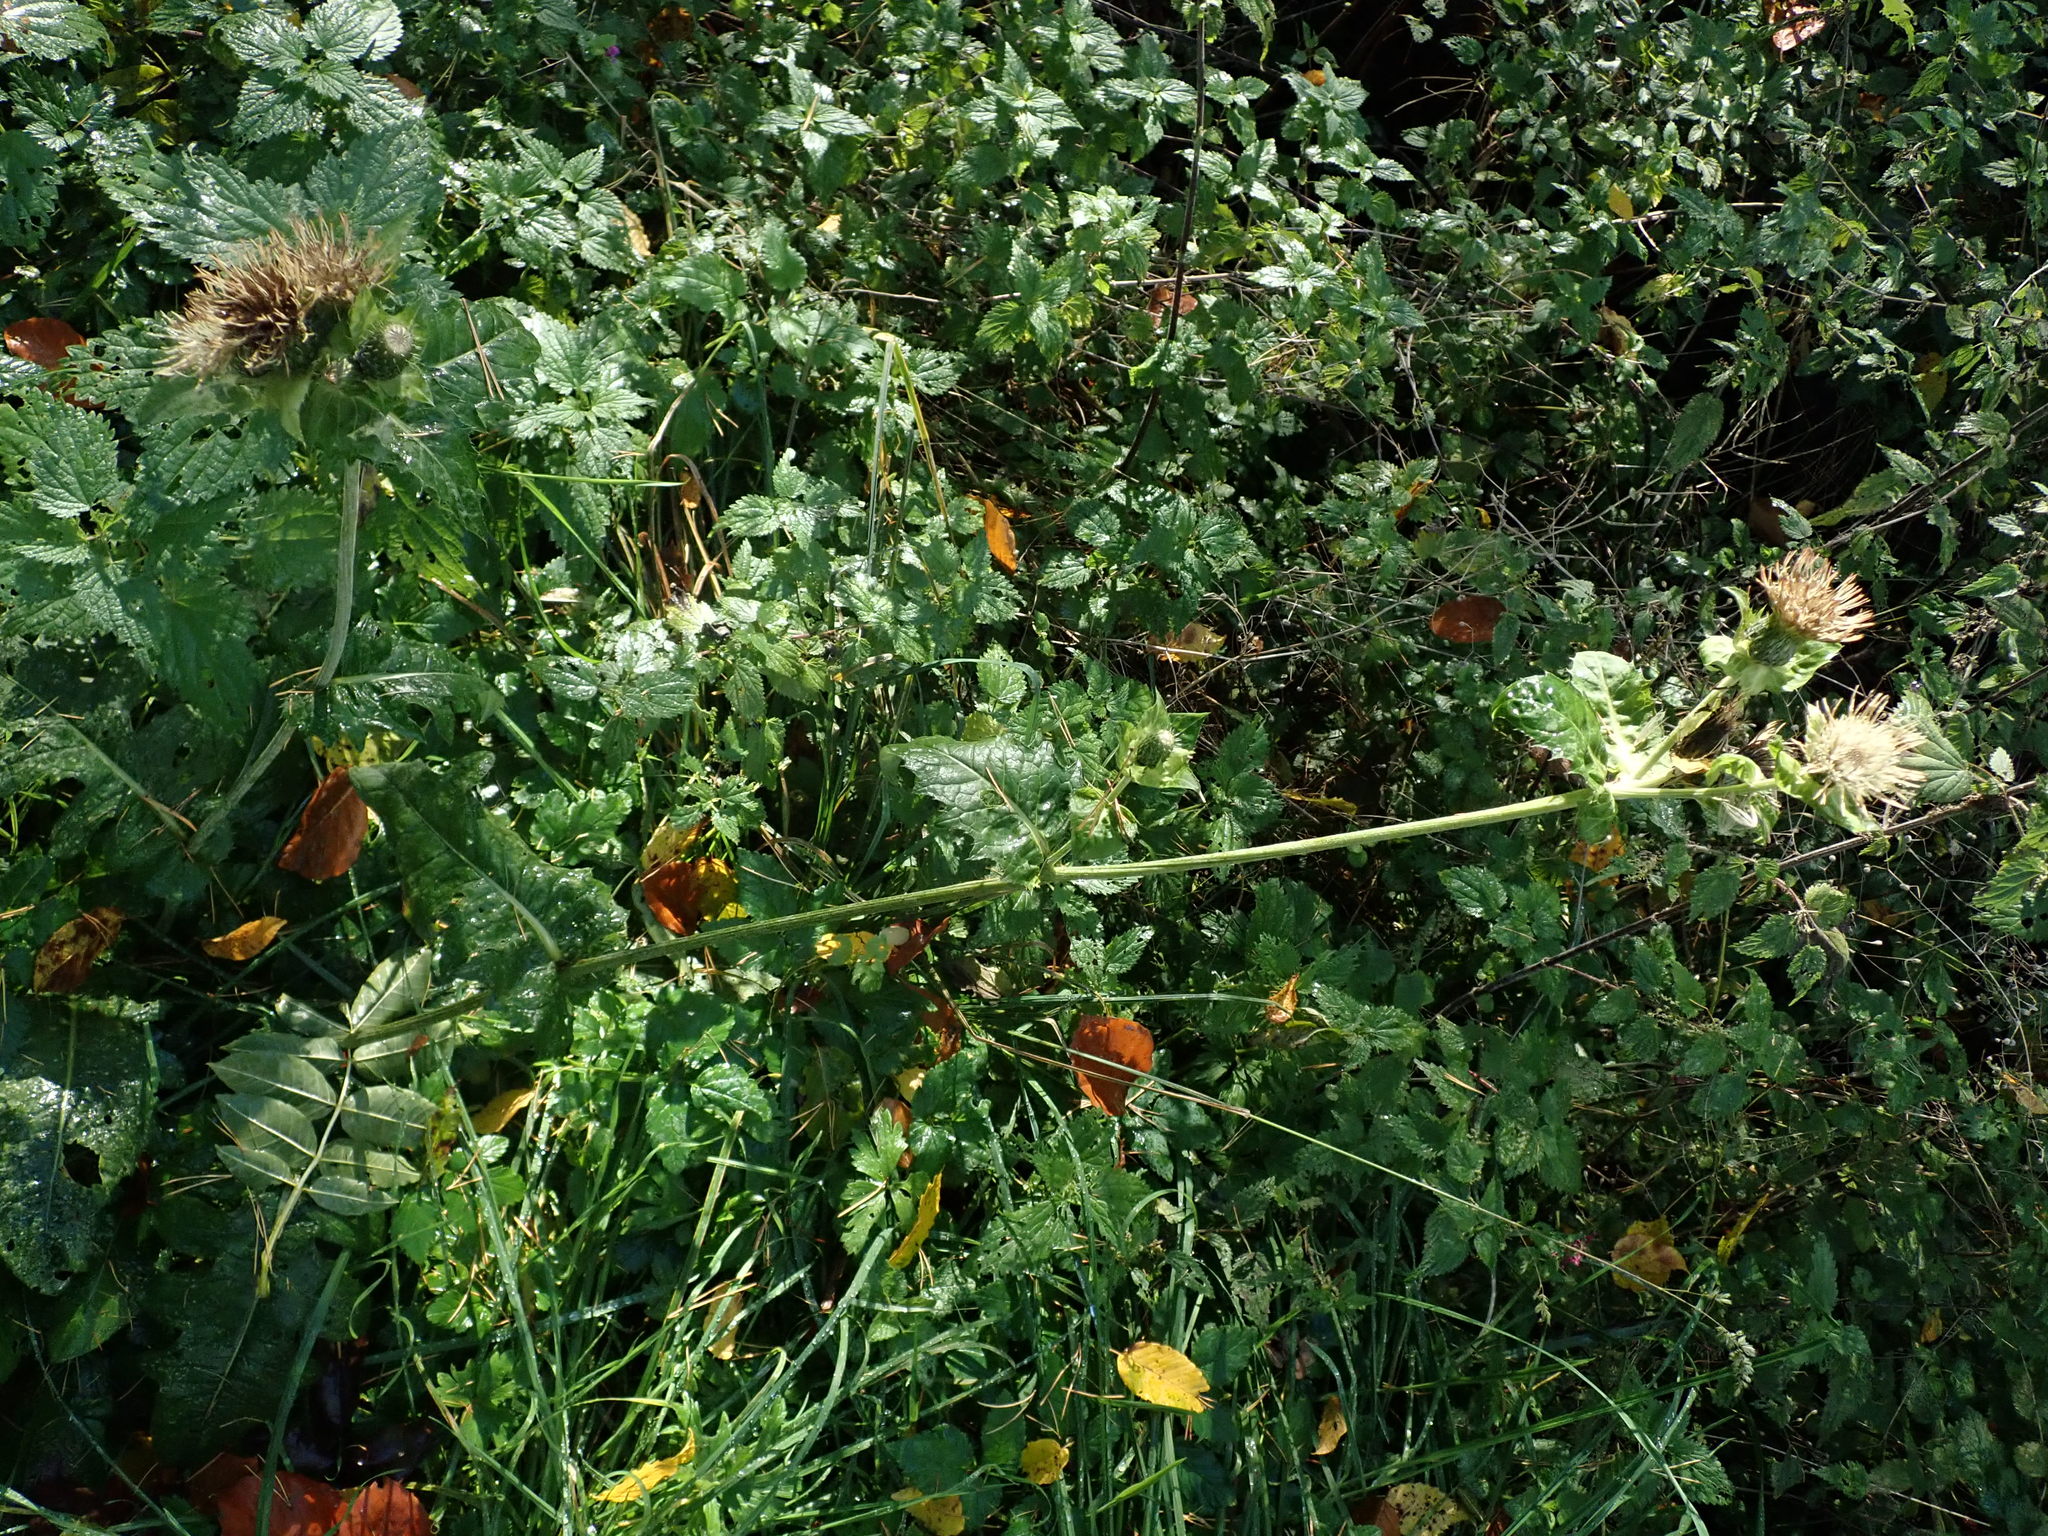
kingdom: Plantae
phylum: Tracheophyta
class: Magnoliopsida
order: Asterales
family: Asteraceae
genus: Cirsium
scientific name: Cirsium oleraceum
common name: Cabbage thistle
